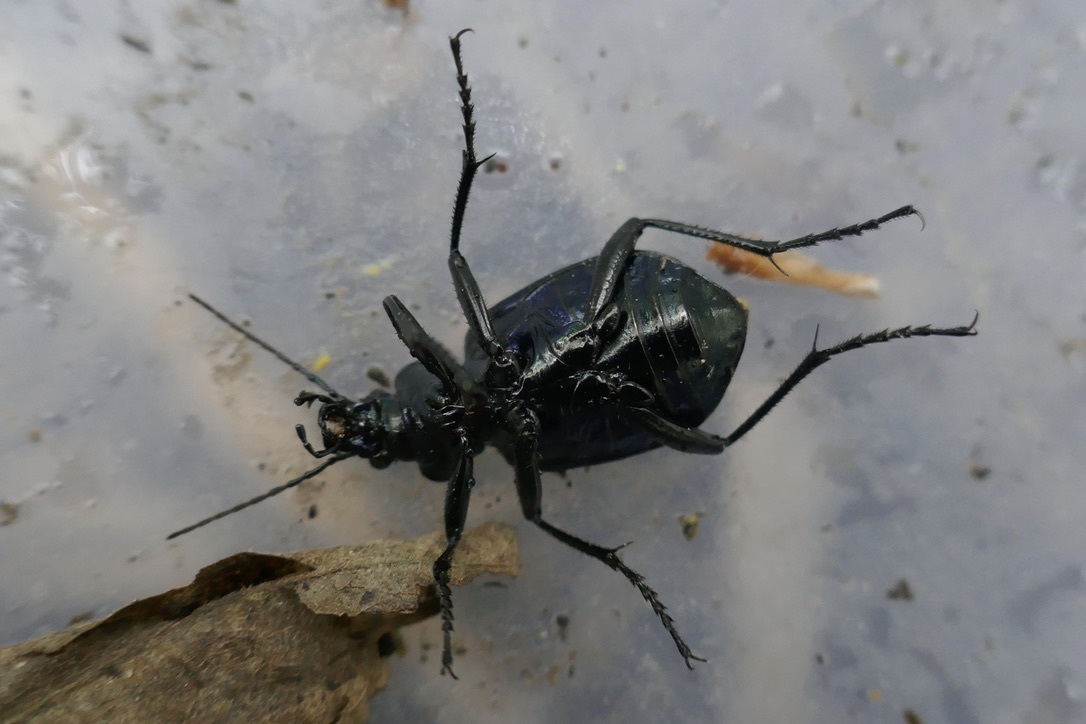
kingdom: Animalia
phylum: Arthropoda
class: Insecta
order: Coleoptera
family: Carabidae
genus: Calosoma
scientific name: Calosoma inquisitor
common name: Caterpillar-hunter
